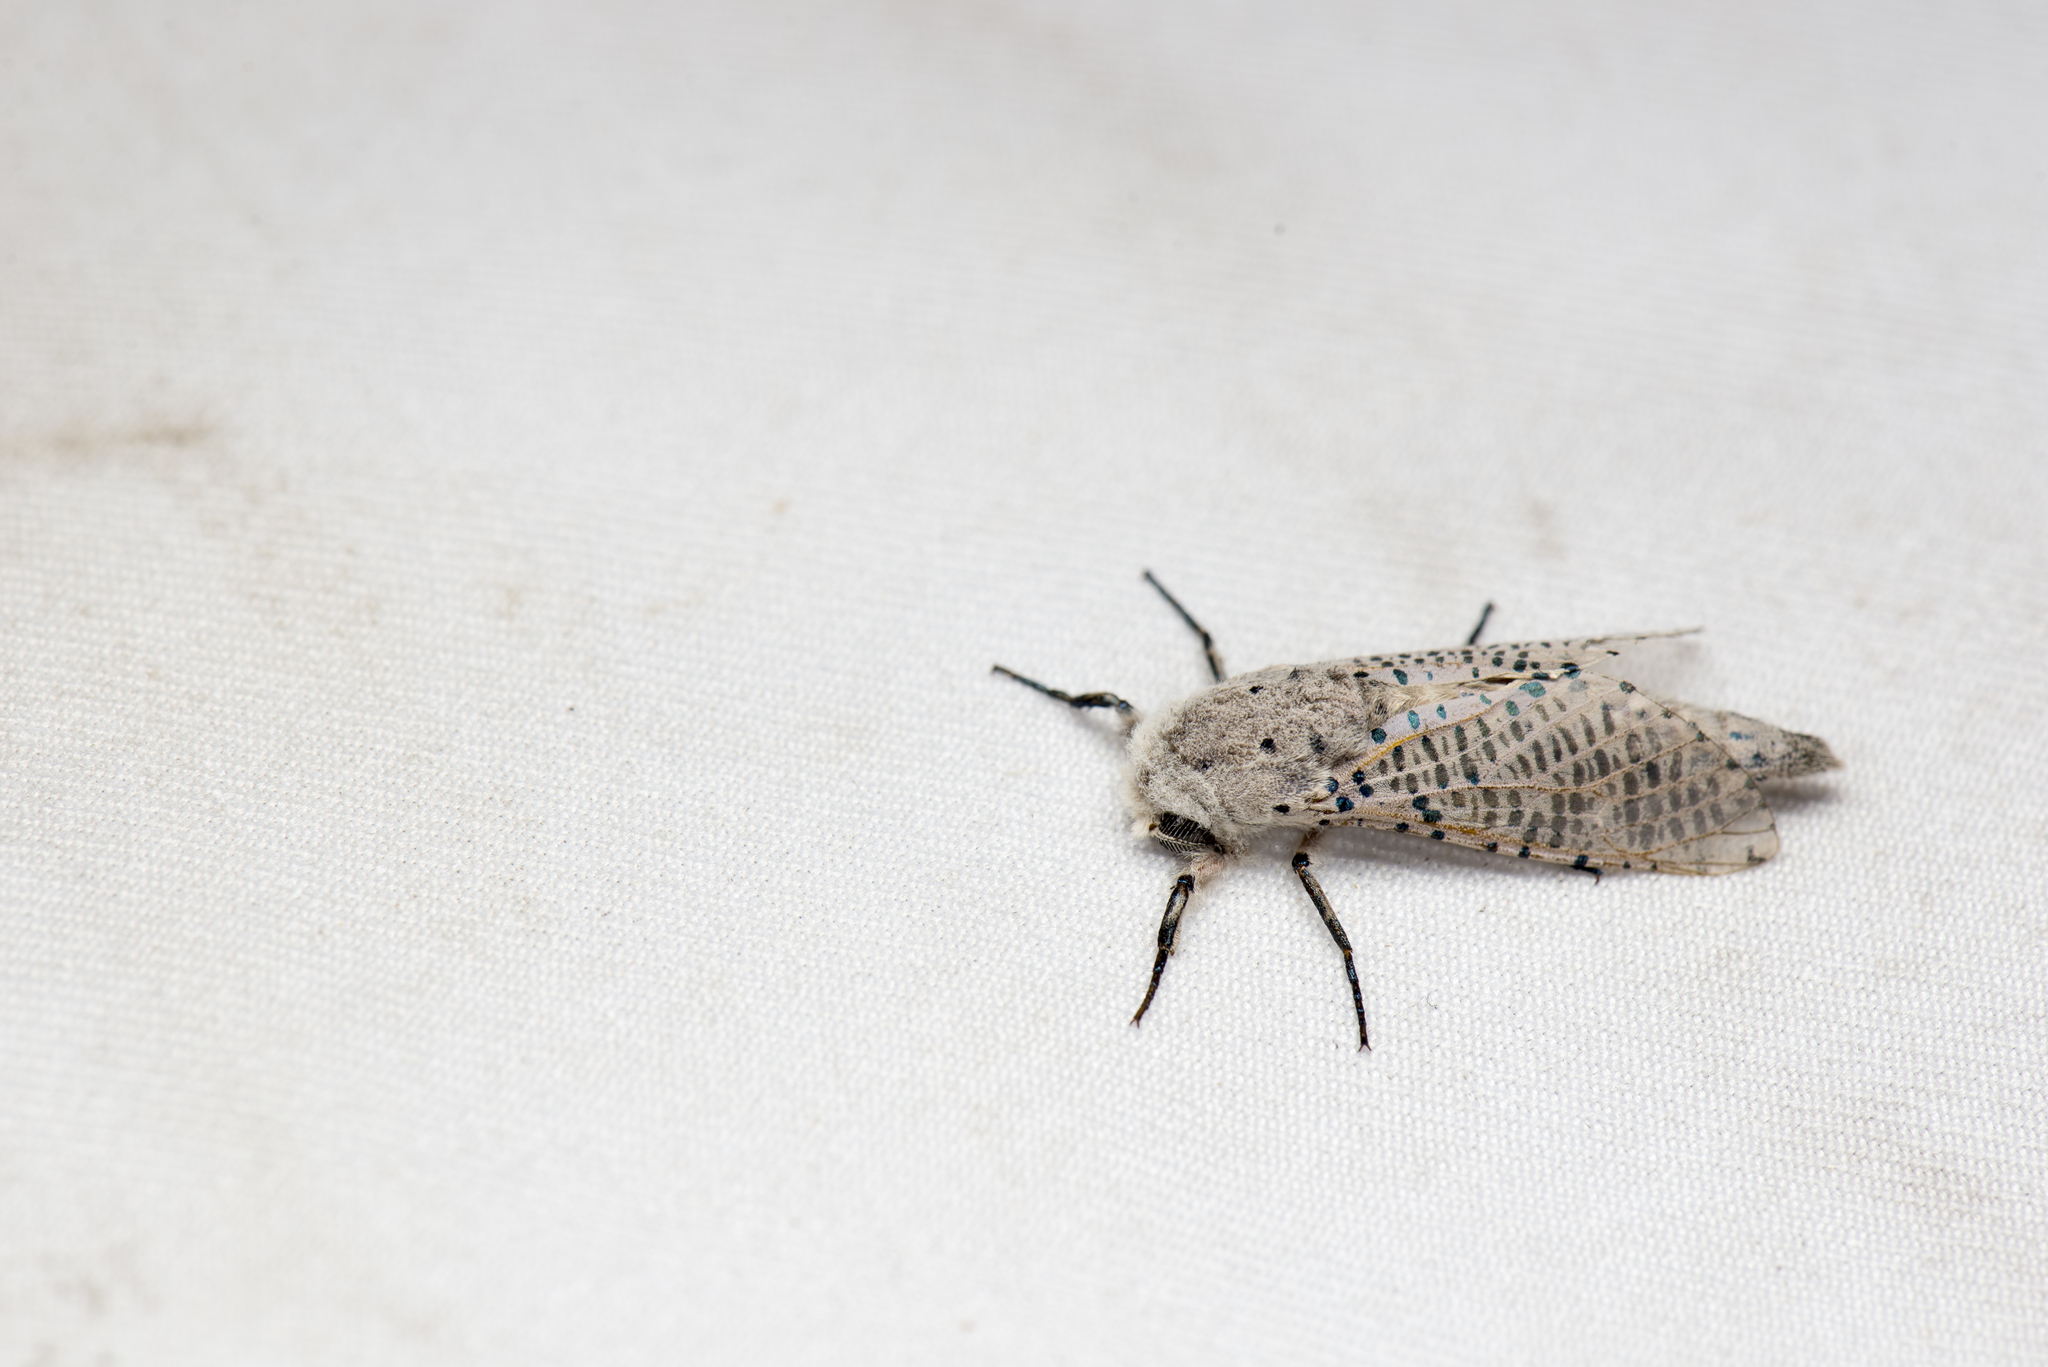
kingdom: Animalia
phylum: Arthropoda
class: Insecta
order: Lepidoptera
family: Cossidae
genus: Polyphagozerra
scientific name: Polyphagozerra coffeae
